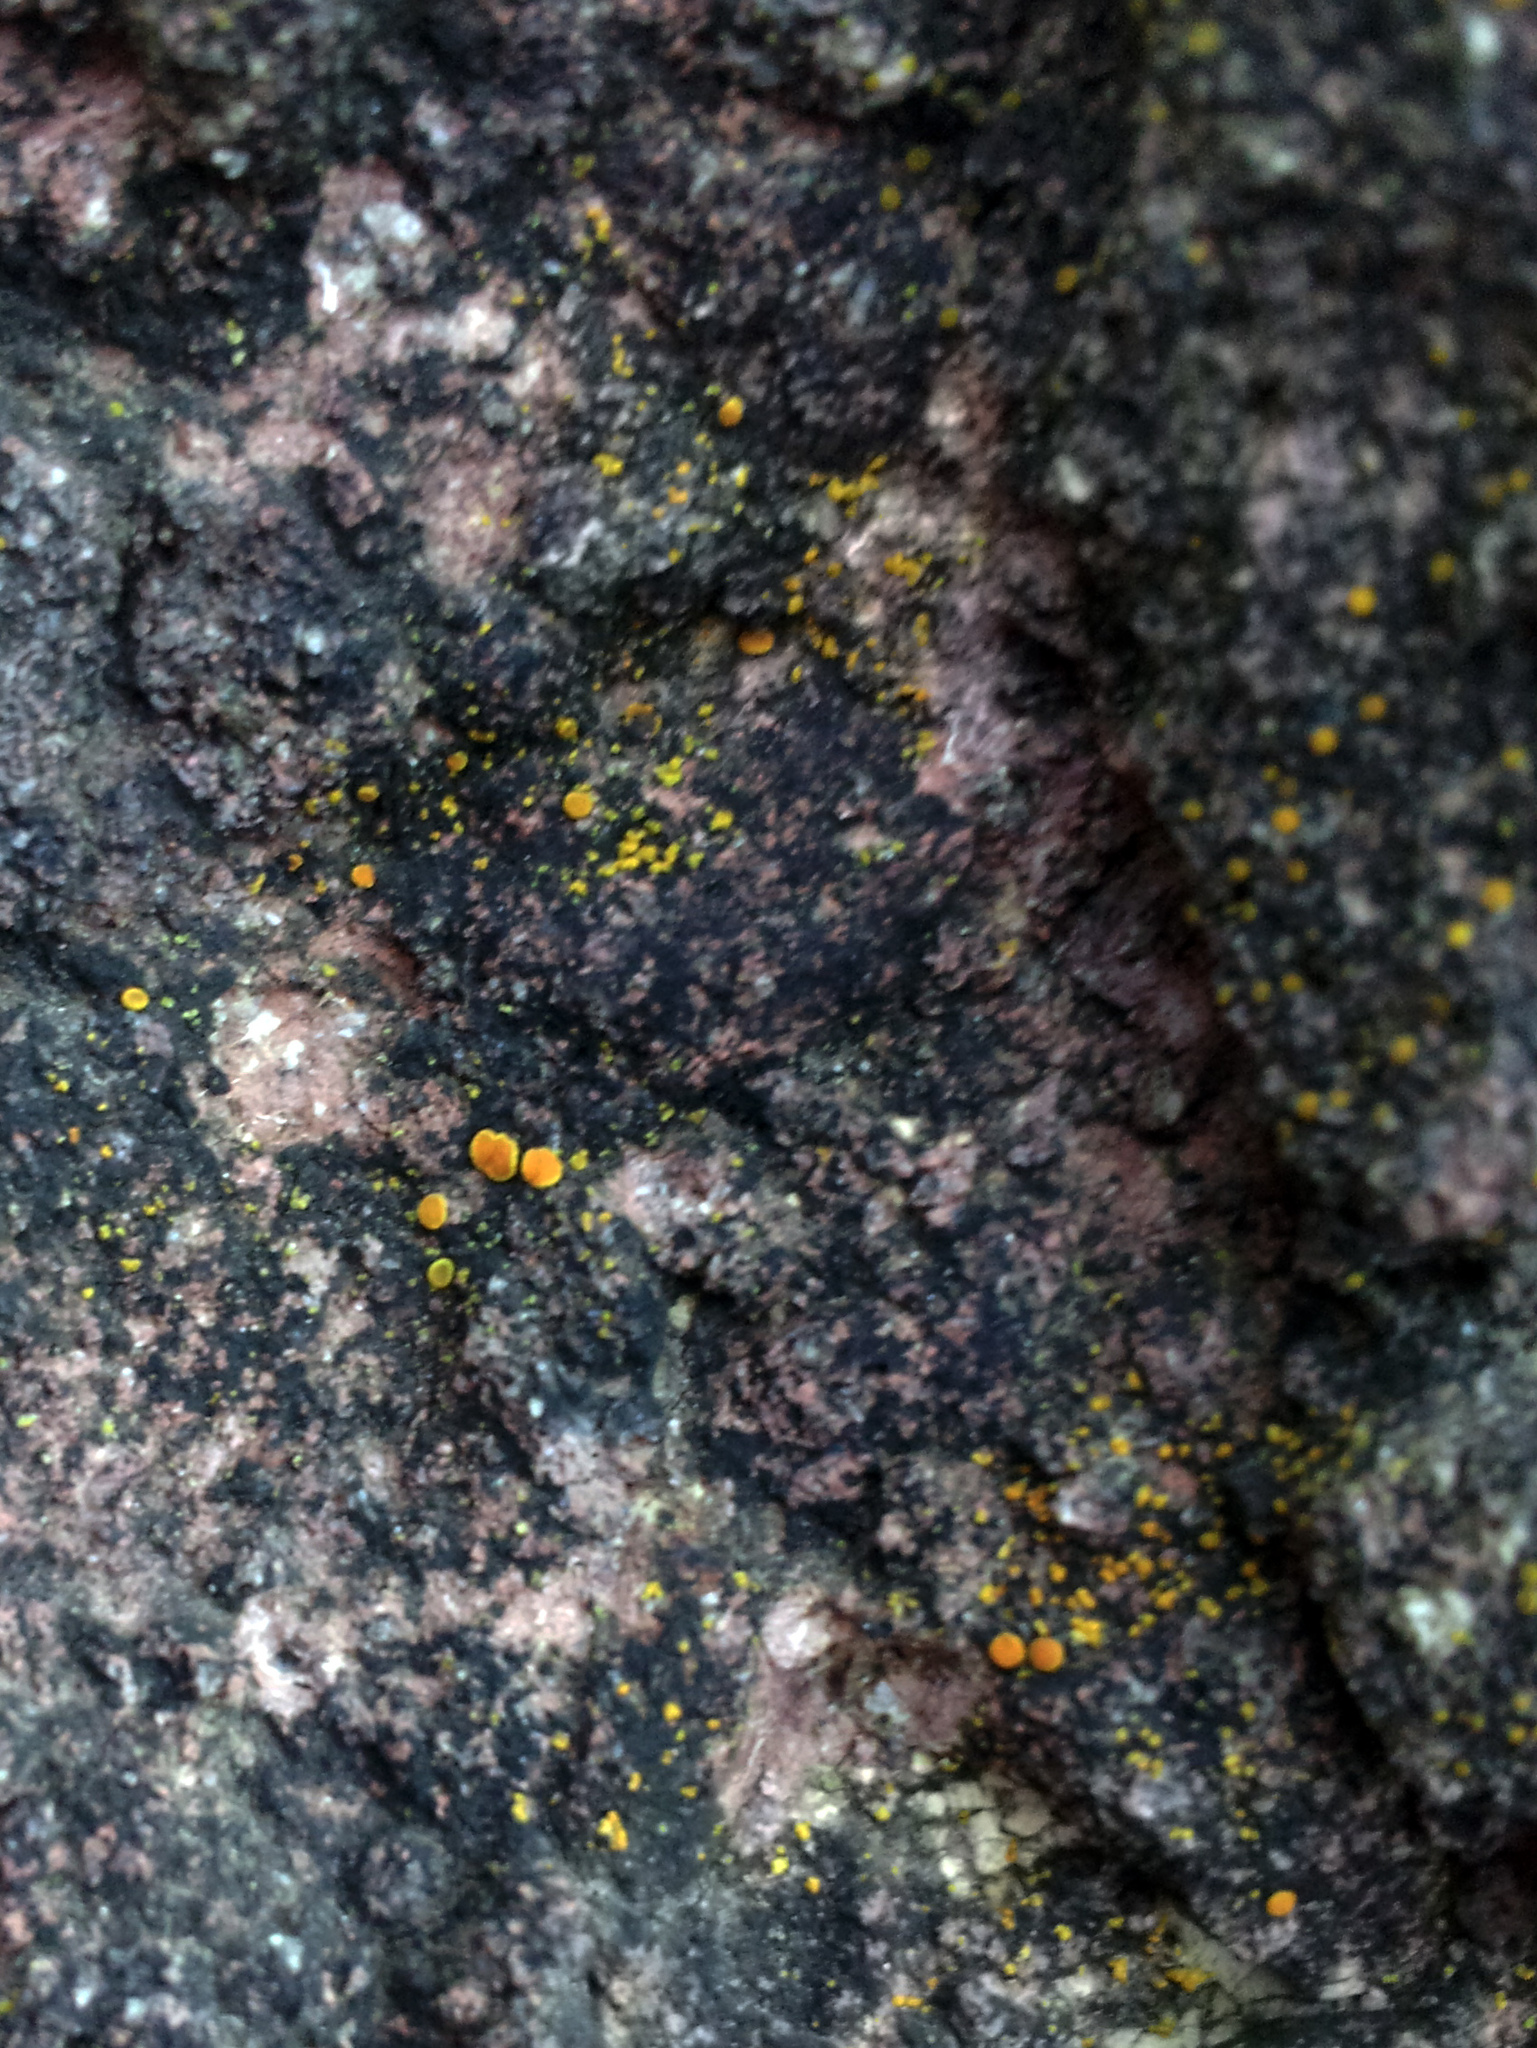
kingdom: Fungi
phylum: Ascomycota
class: Lecanoromycetes
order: Teloschistales
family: Teloschistaceae
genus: Caloplaca
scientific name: Caloplaca allanii
